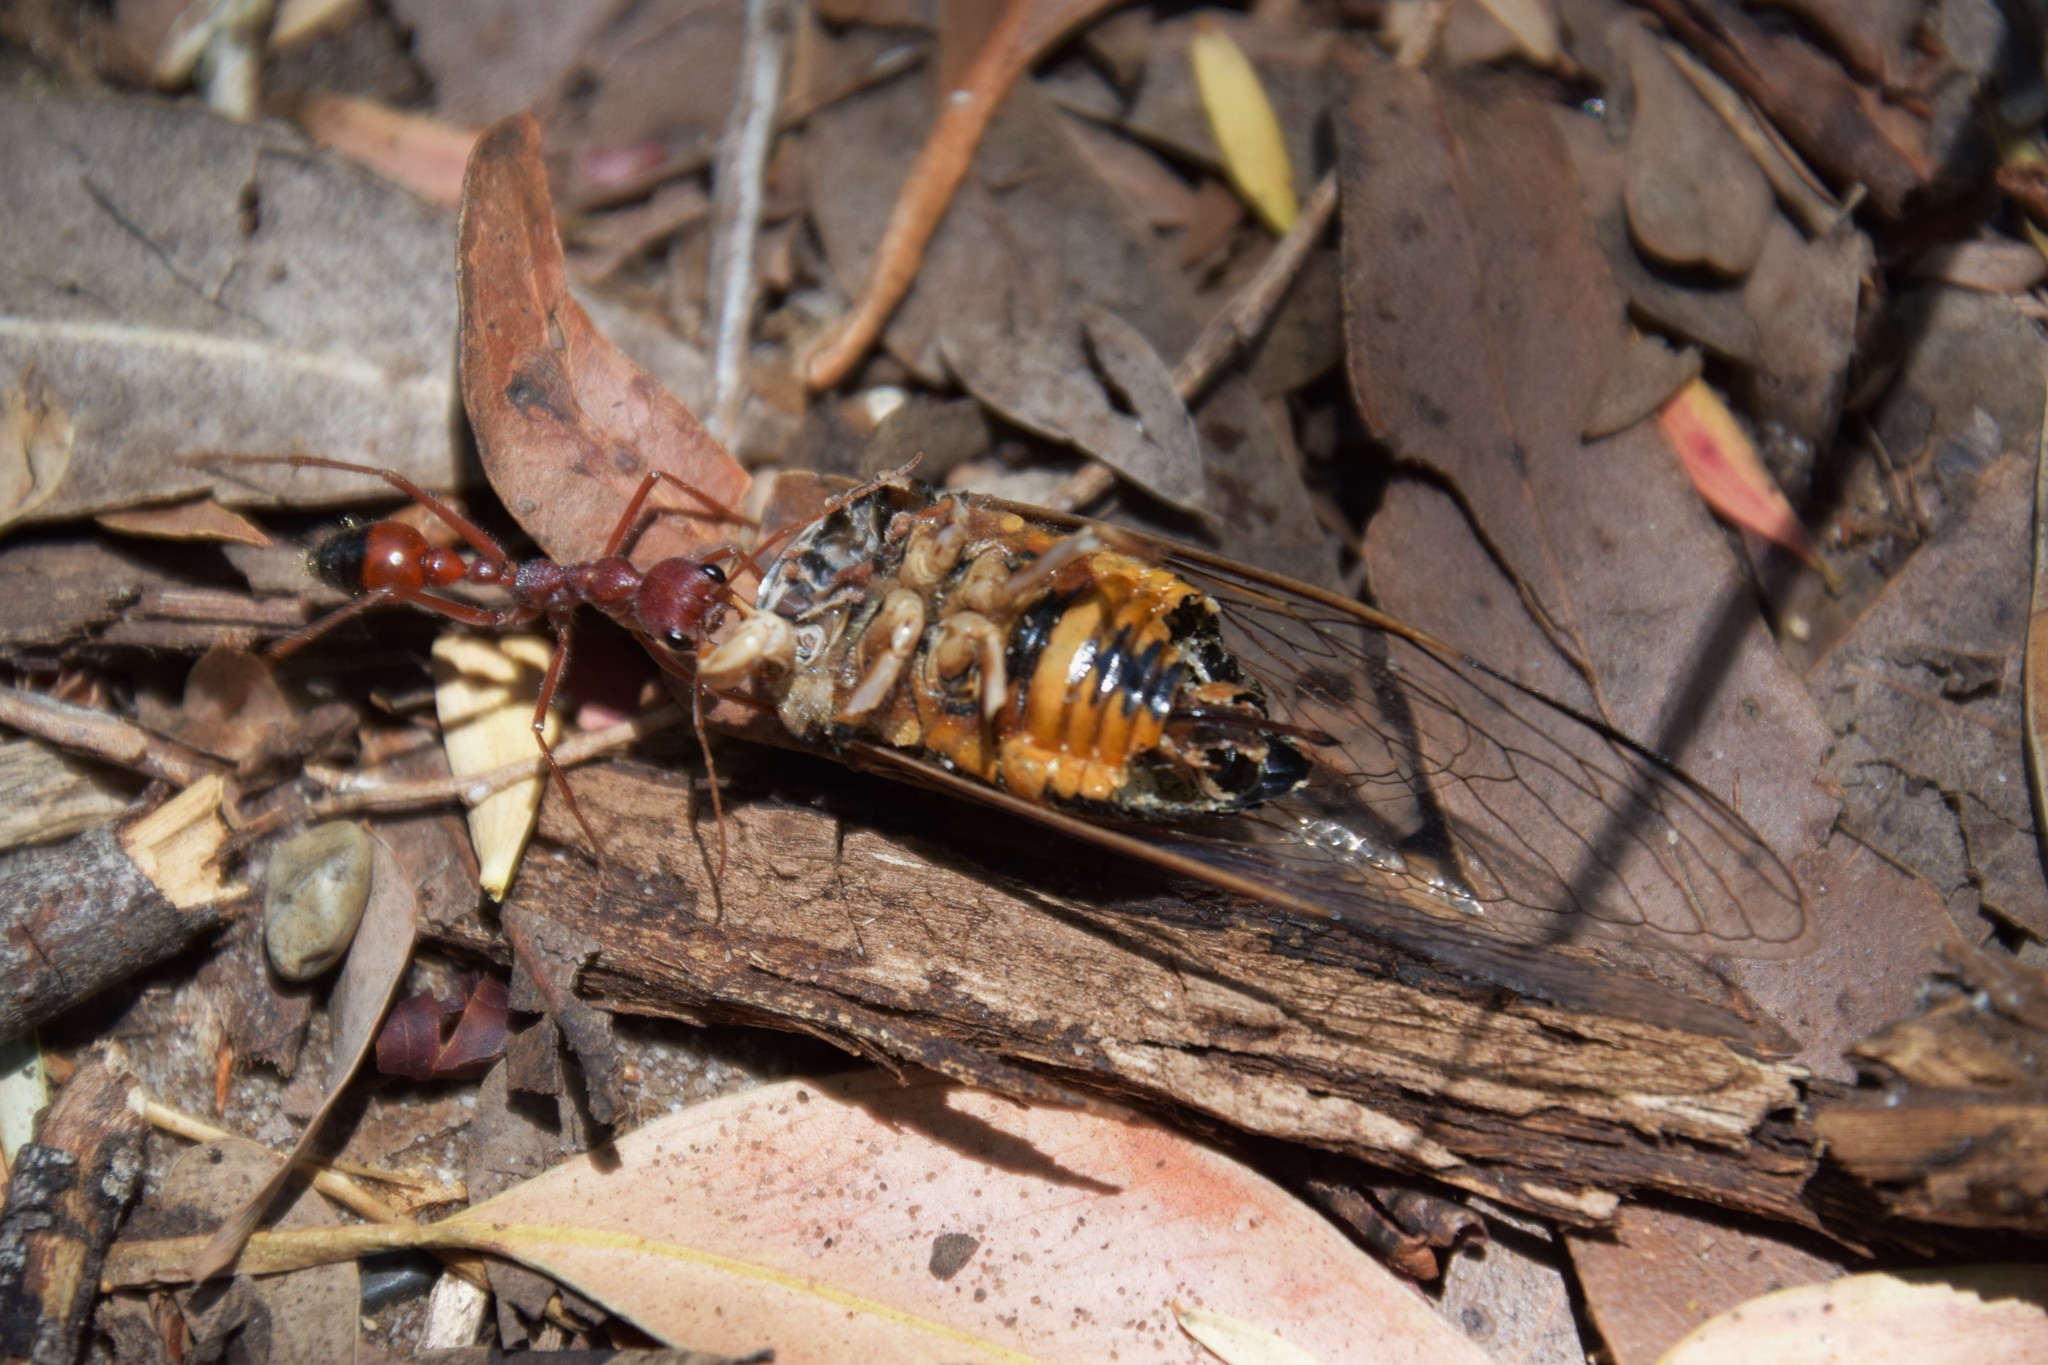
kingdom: Animalia
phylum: Arthropoda
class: Insecta
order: Hemiptera
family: Cicadidae
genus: Psaltoda
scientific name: Psaltoda harrisii
